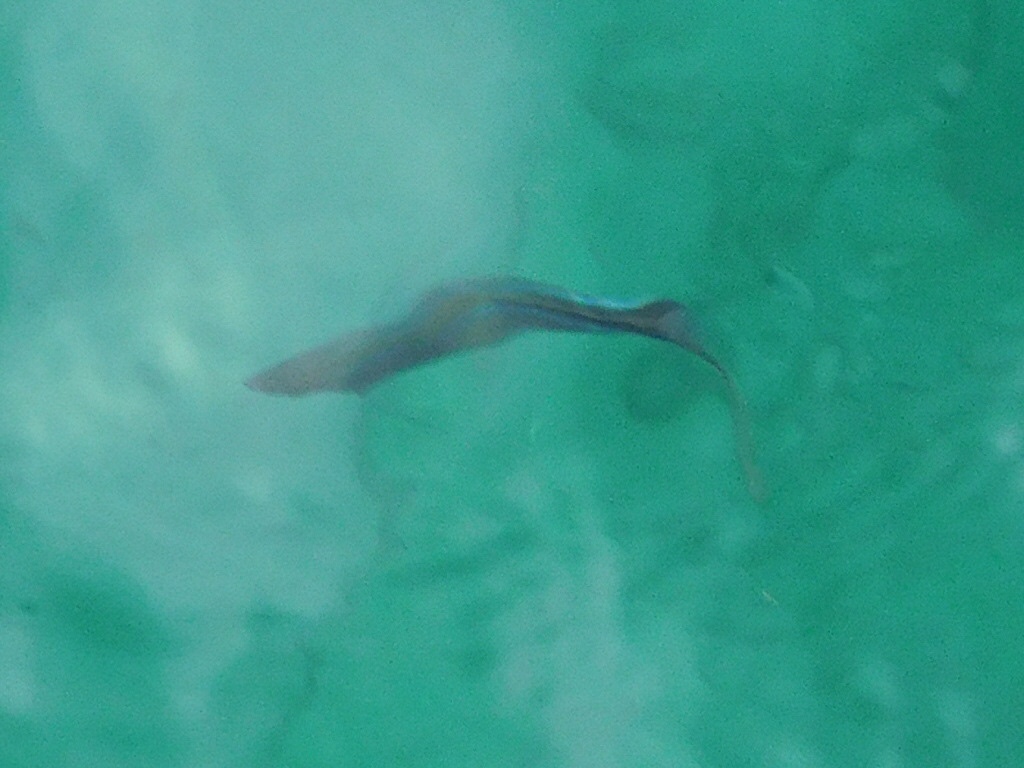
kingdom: Animalia
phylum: Chordata
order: Perciformes
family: Carangidae
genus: Caranx
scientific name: Caranx ruber
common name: Bar jack
